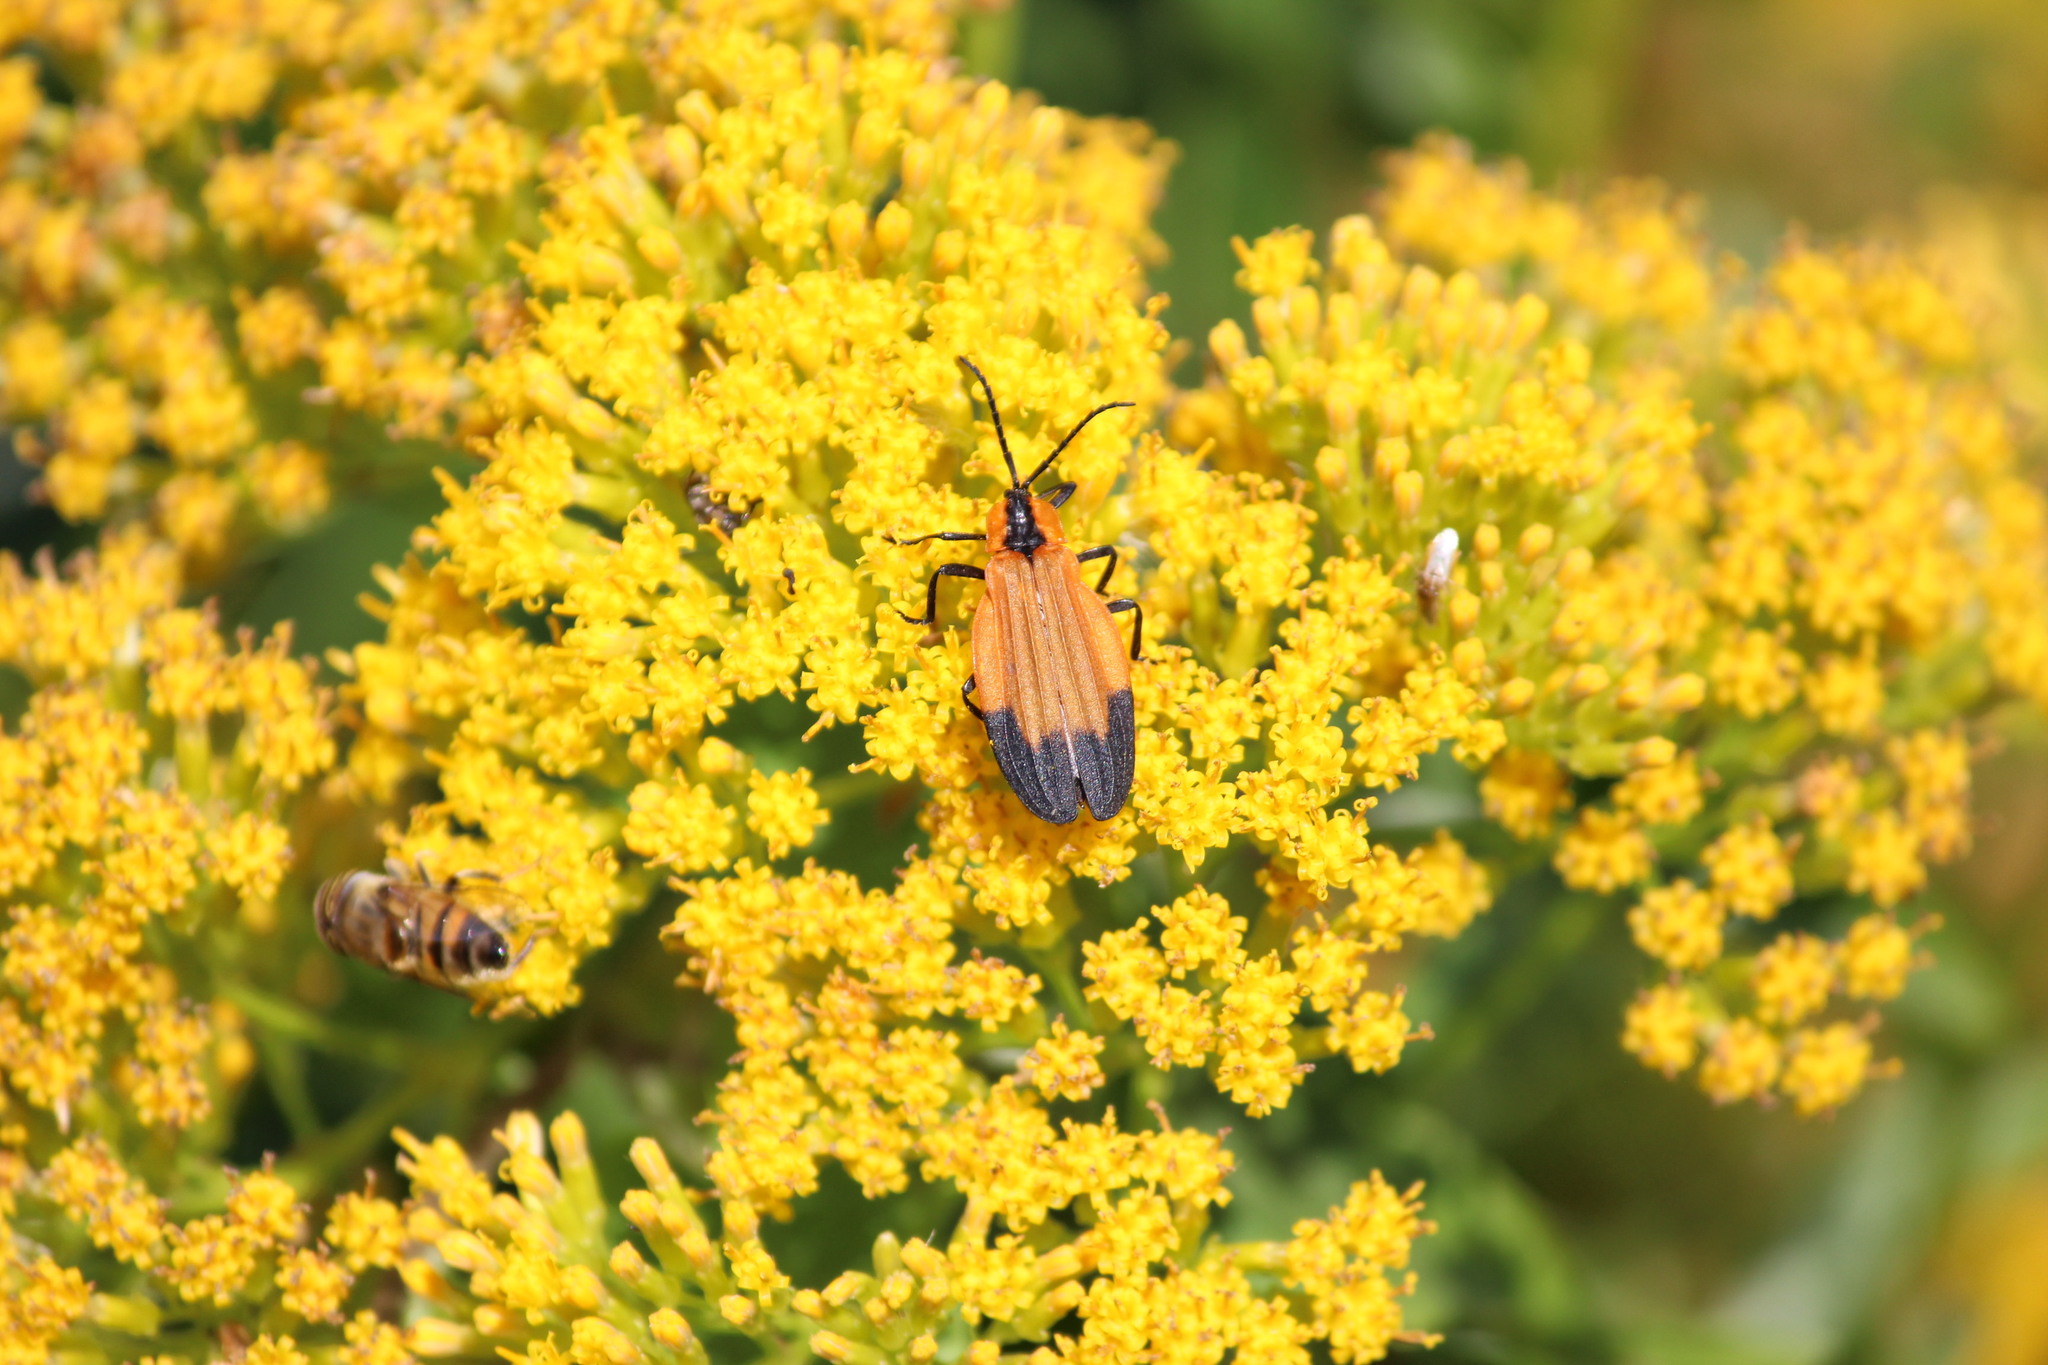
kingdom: Animalia
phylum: Arthropoda
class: Insecta
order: Coleoptera
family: Lycidae
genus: Lycus
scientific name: Lycus
